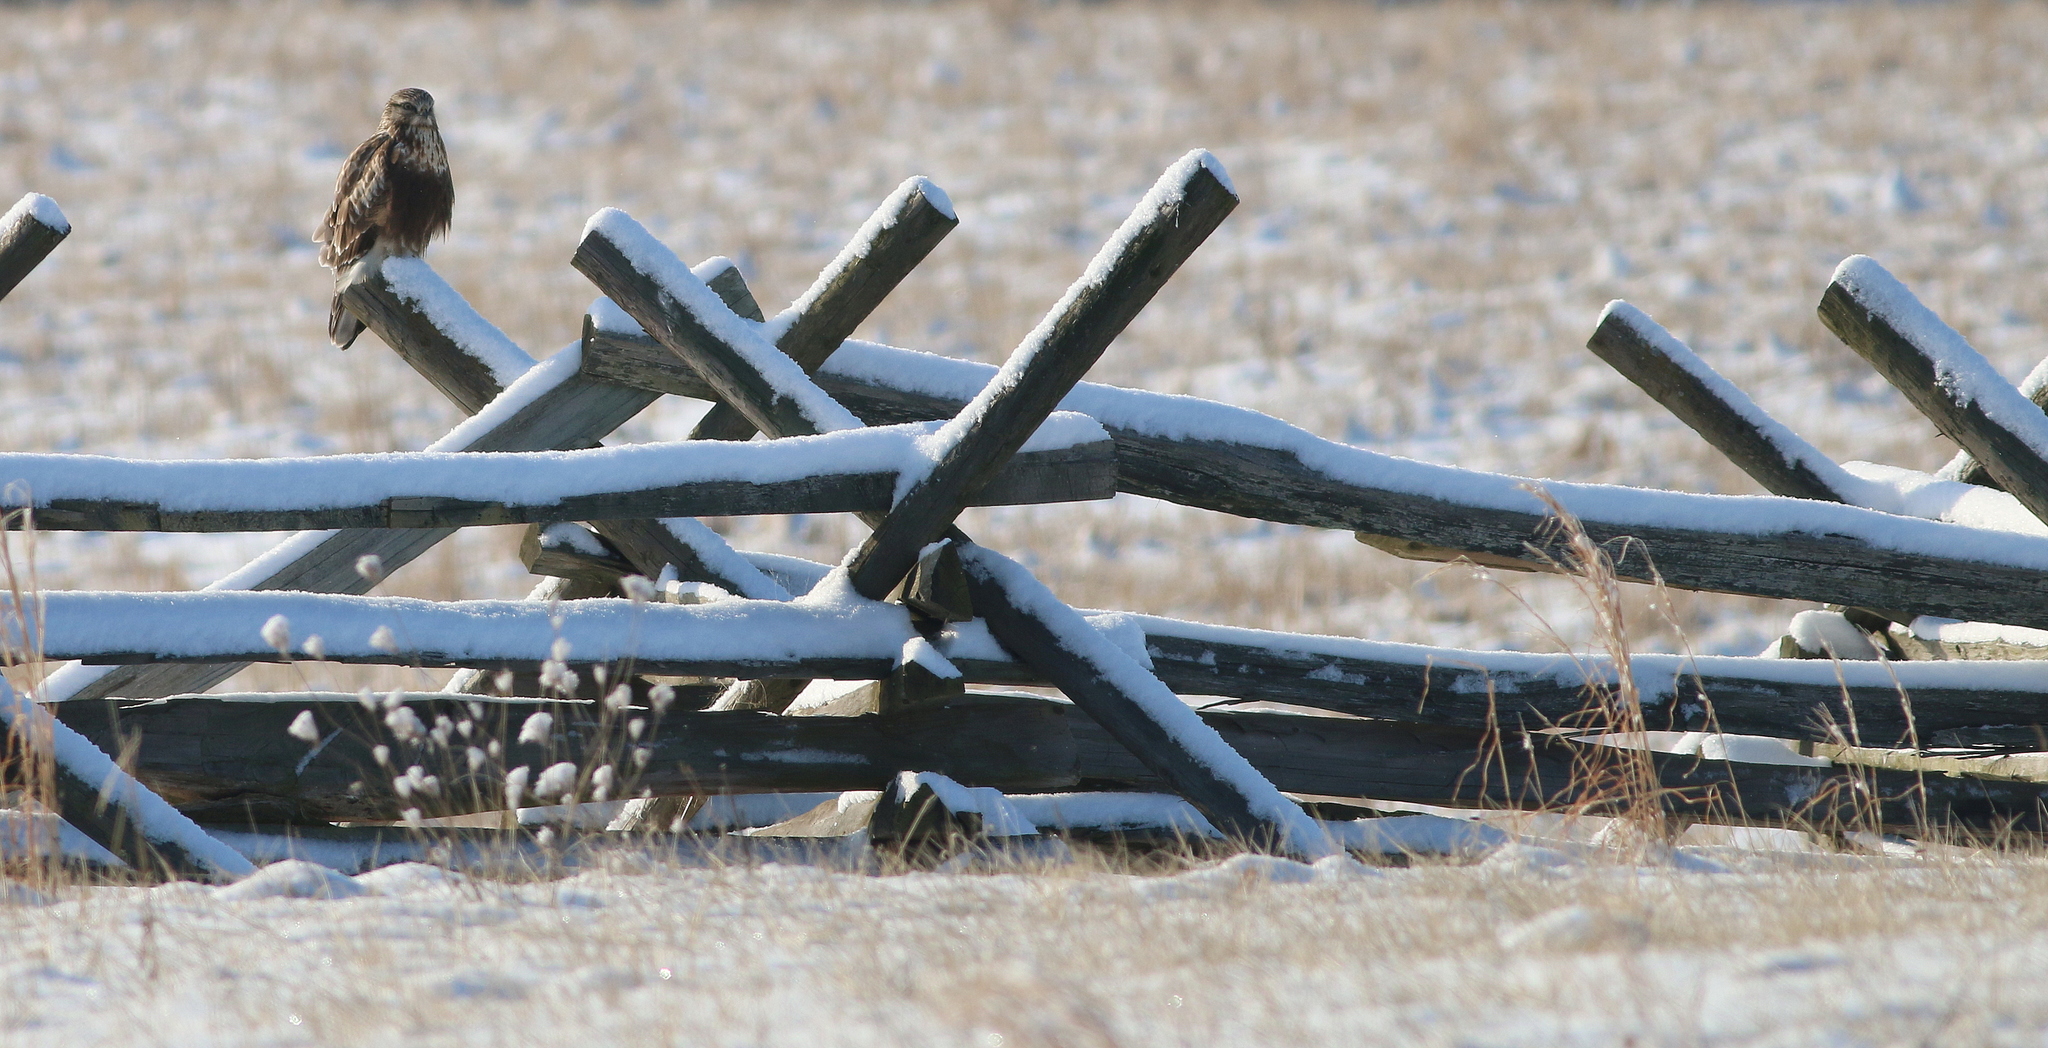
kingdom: Animalia
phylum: Chordata
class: Aves
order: Accipitriformes
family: Accipitridae
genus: Buteo
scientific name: Buteo lagopus
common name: Rough-legged buzzard
